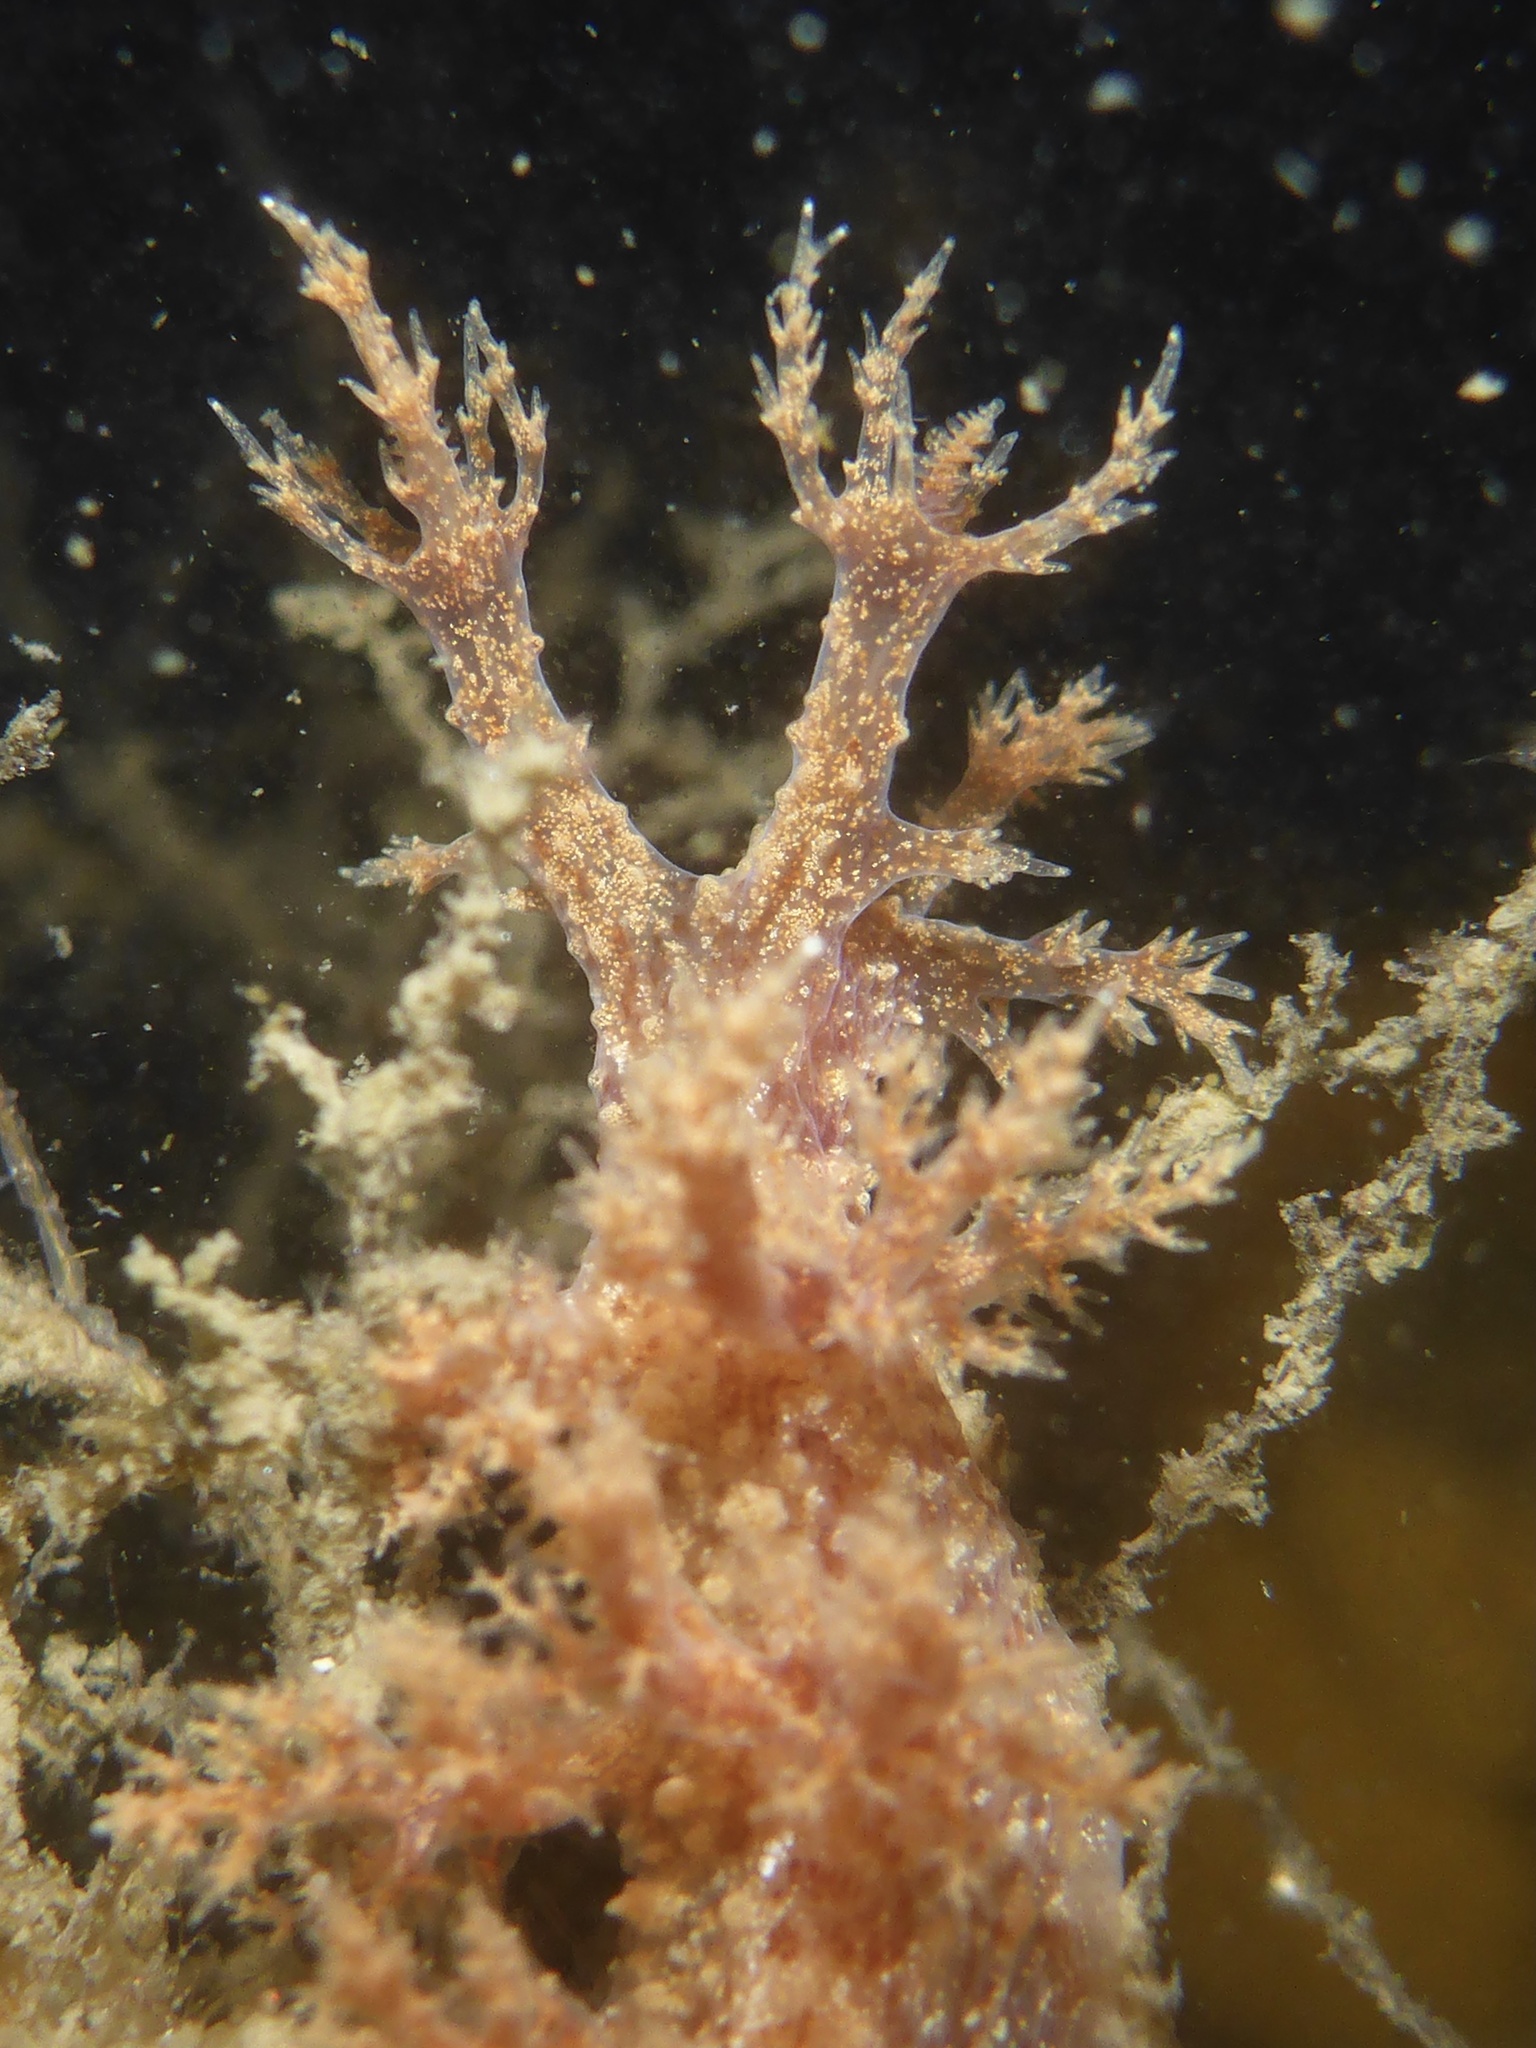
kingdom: Animalia
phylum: Mollusca
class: Gastropoda
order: Nudibranchia
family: Dendronotidae
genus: Dendronotus
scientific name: Dendronotus venustus
